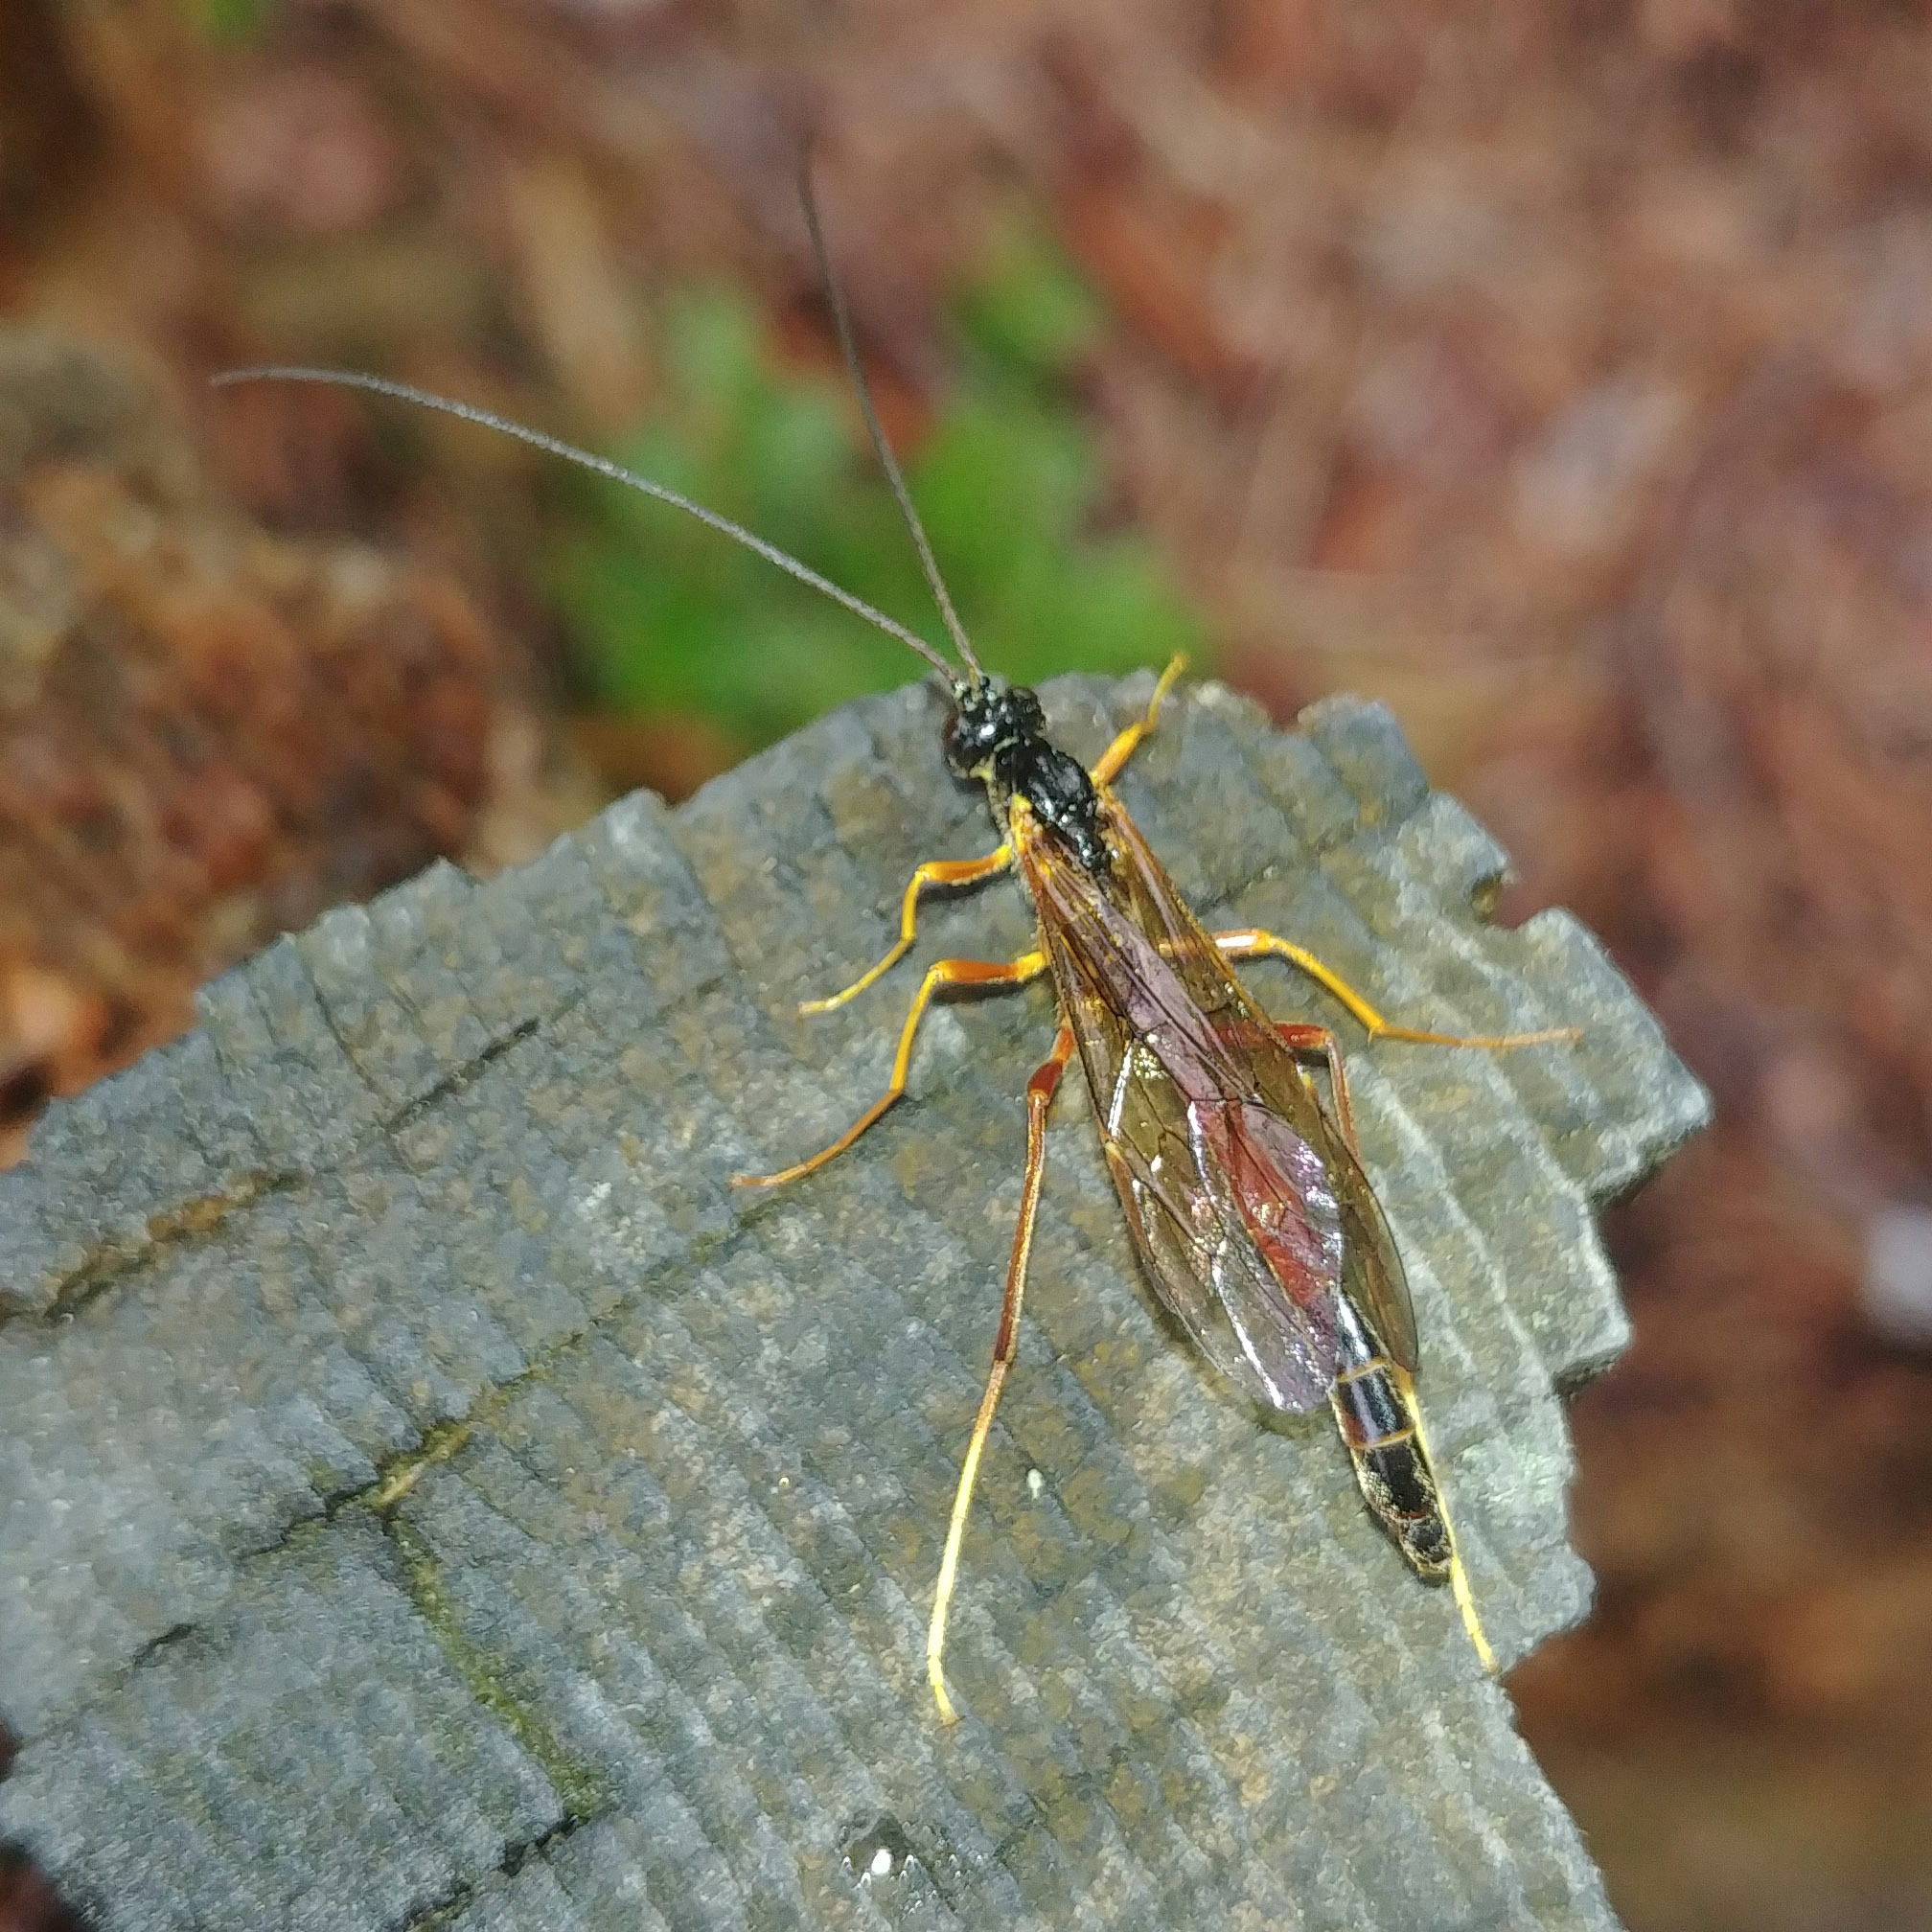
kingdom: Animalia
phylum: Arthropoda
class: Insecta
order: Hymenoptera
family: Ichneumonidae
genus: Coleocentrus
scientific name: Coleocentrus excitator
